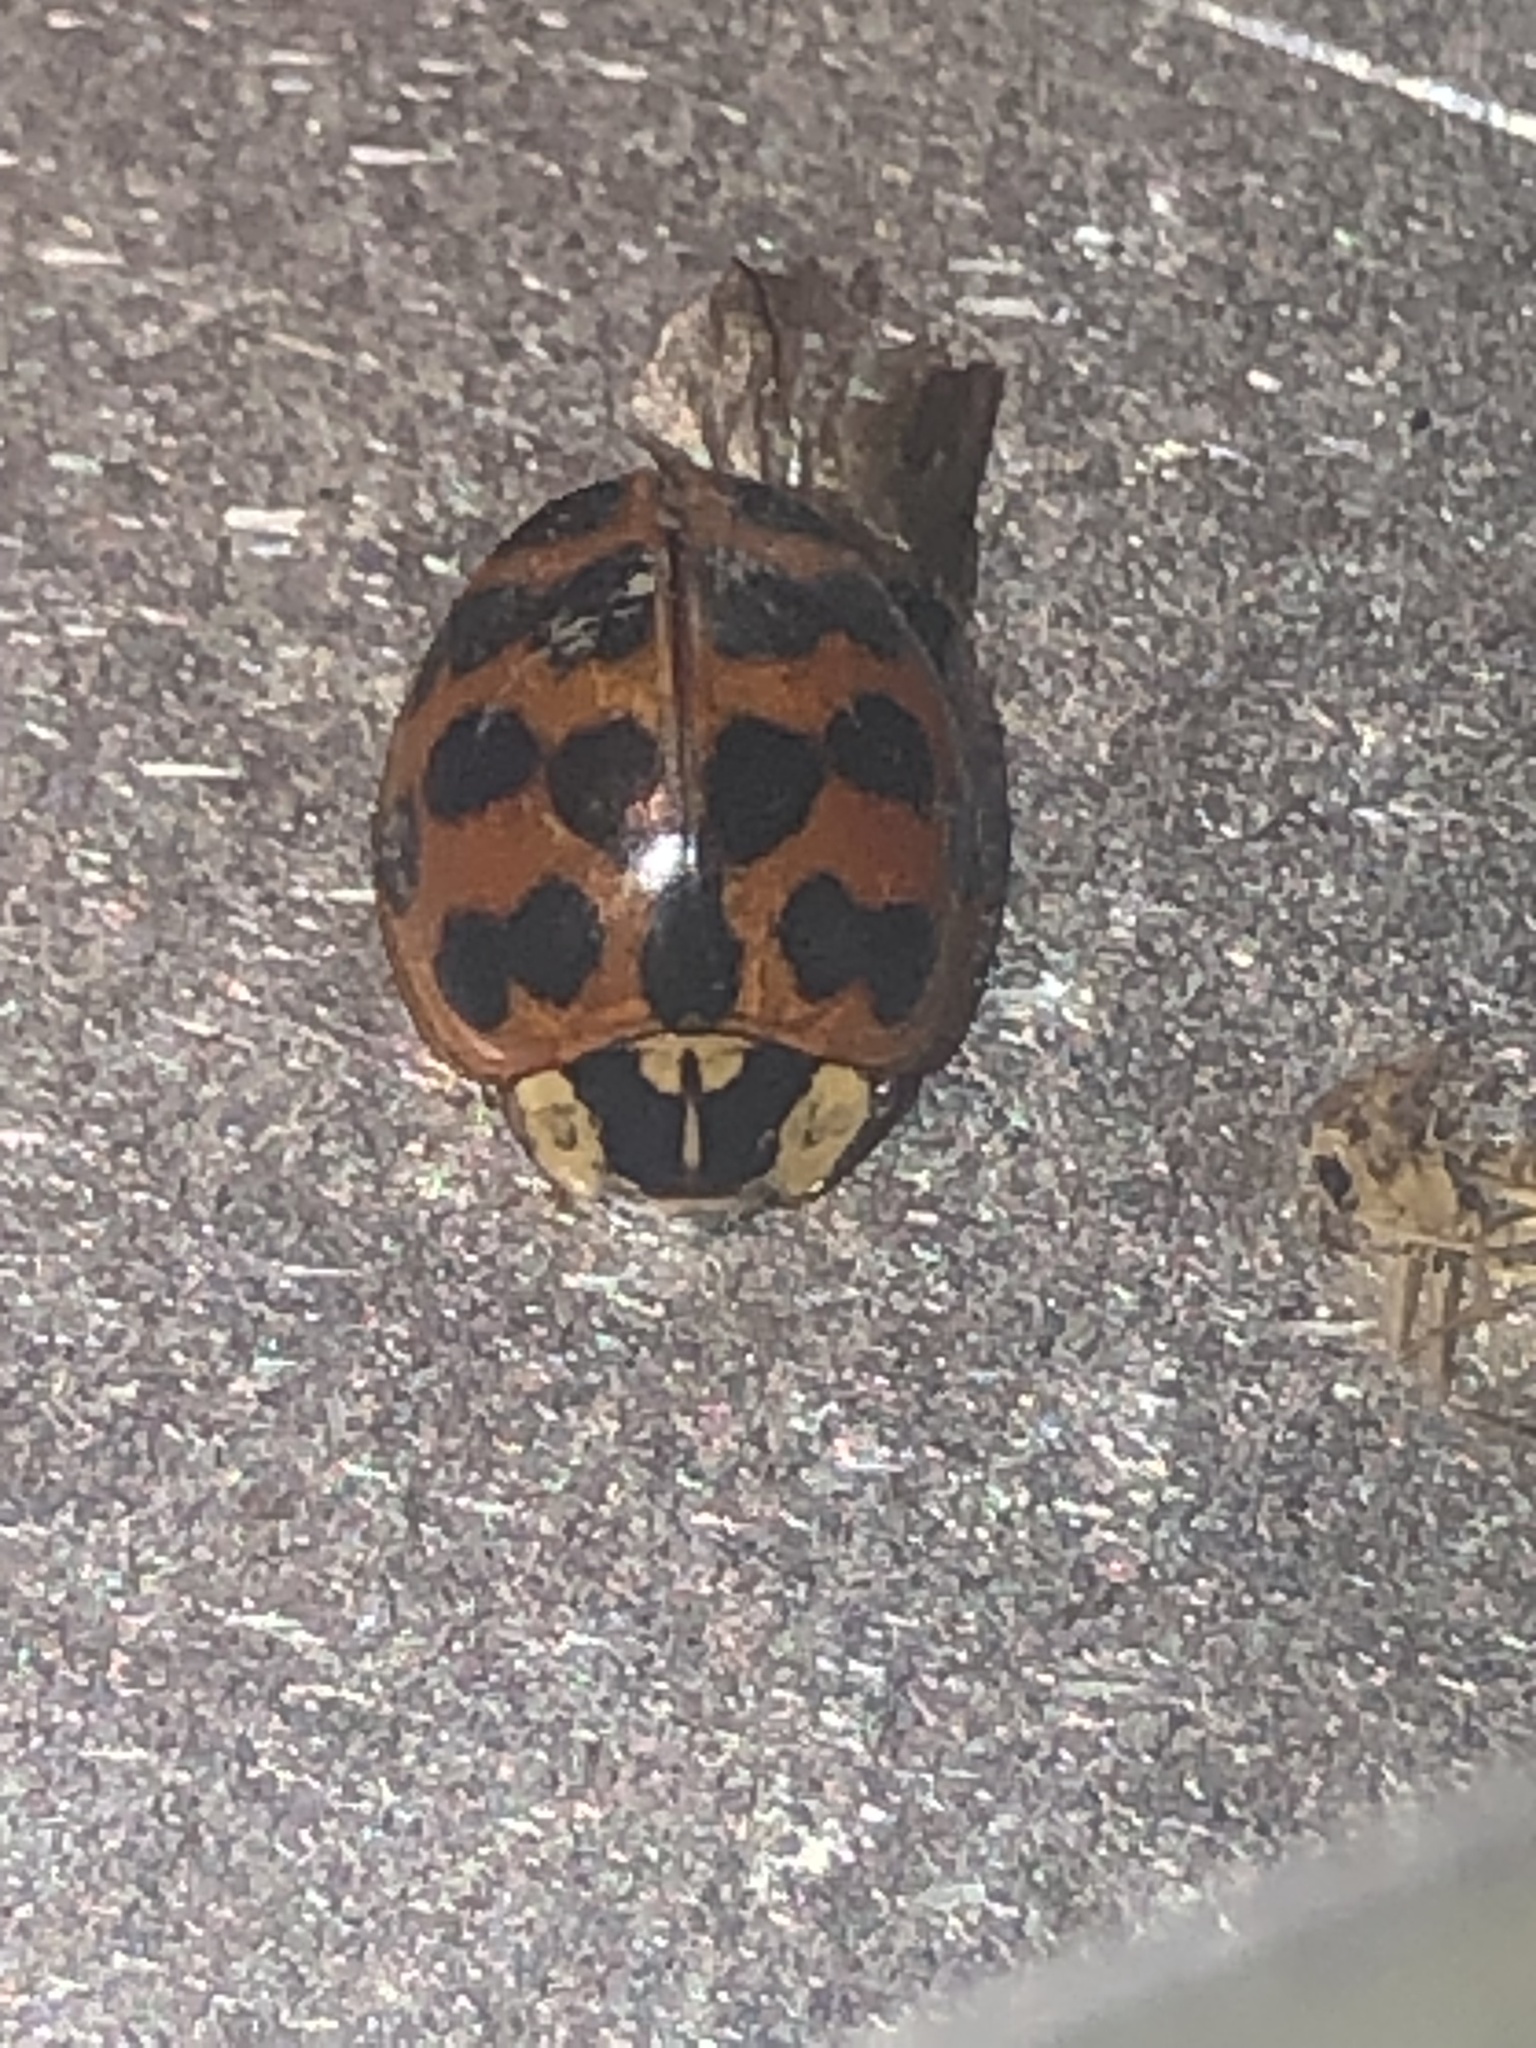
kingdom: Animalia
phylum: Arthropoda
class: Insecta
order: Coleoptera
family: Coccinellidae
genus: Harmonia
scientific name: Harmonia axyridis
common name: Harlequin ladybird
